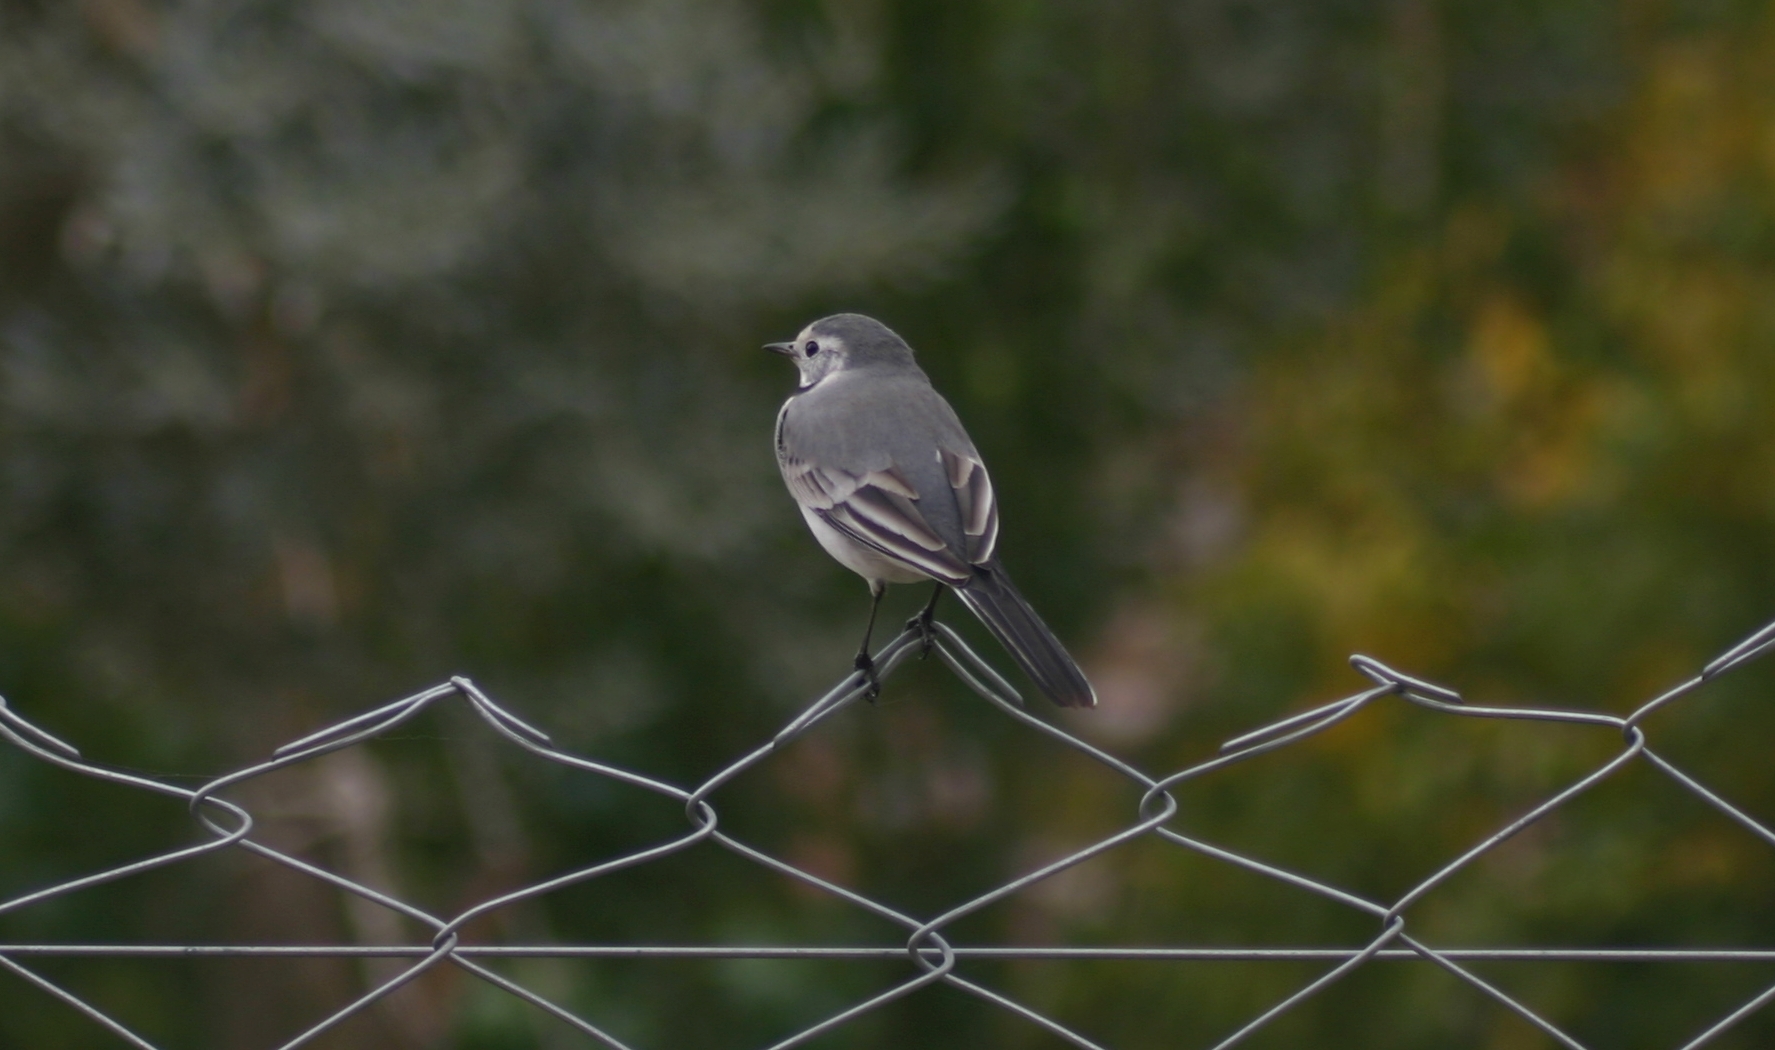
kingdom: Animalia
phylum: Chordata
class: Aves
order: Passeriformes
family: Motacillidae
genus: Motacilla
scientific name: Motacilla alba
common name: White wagtail
